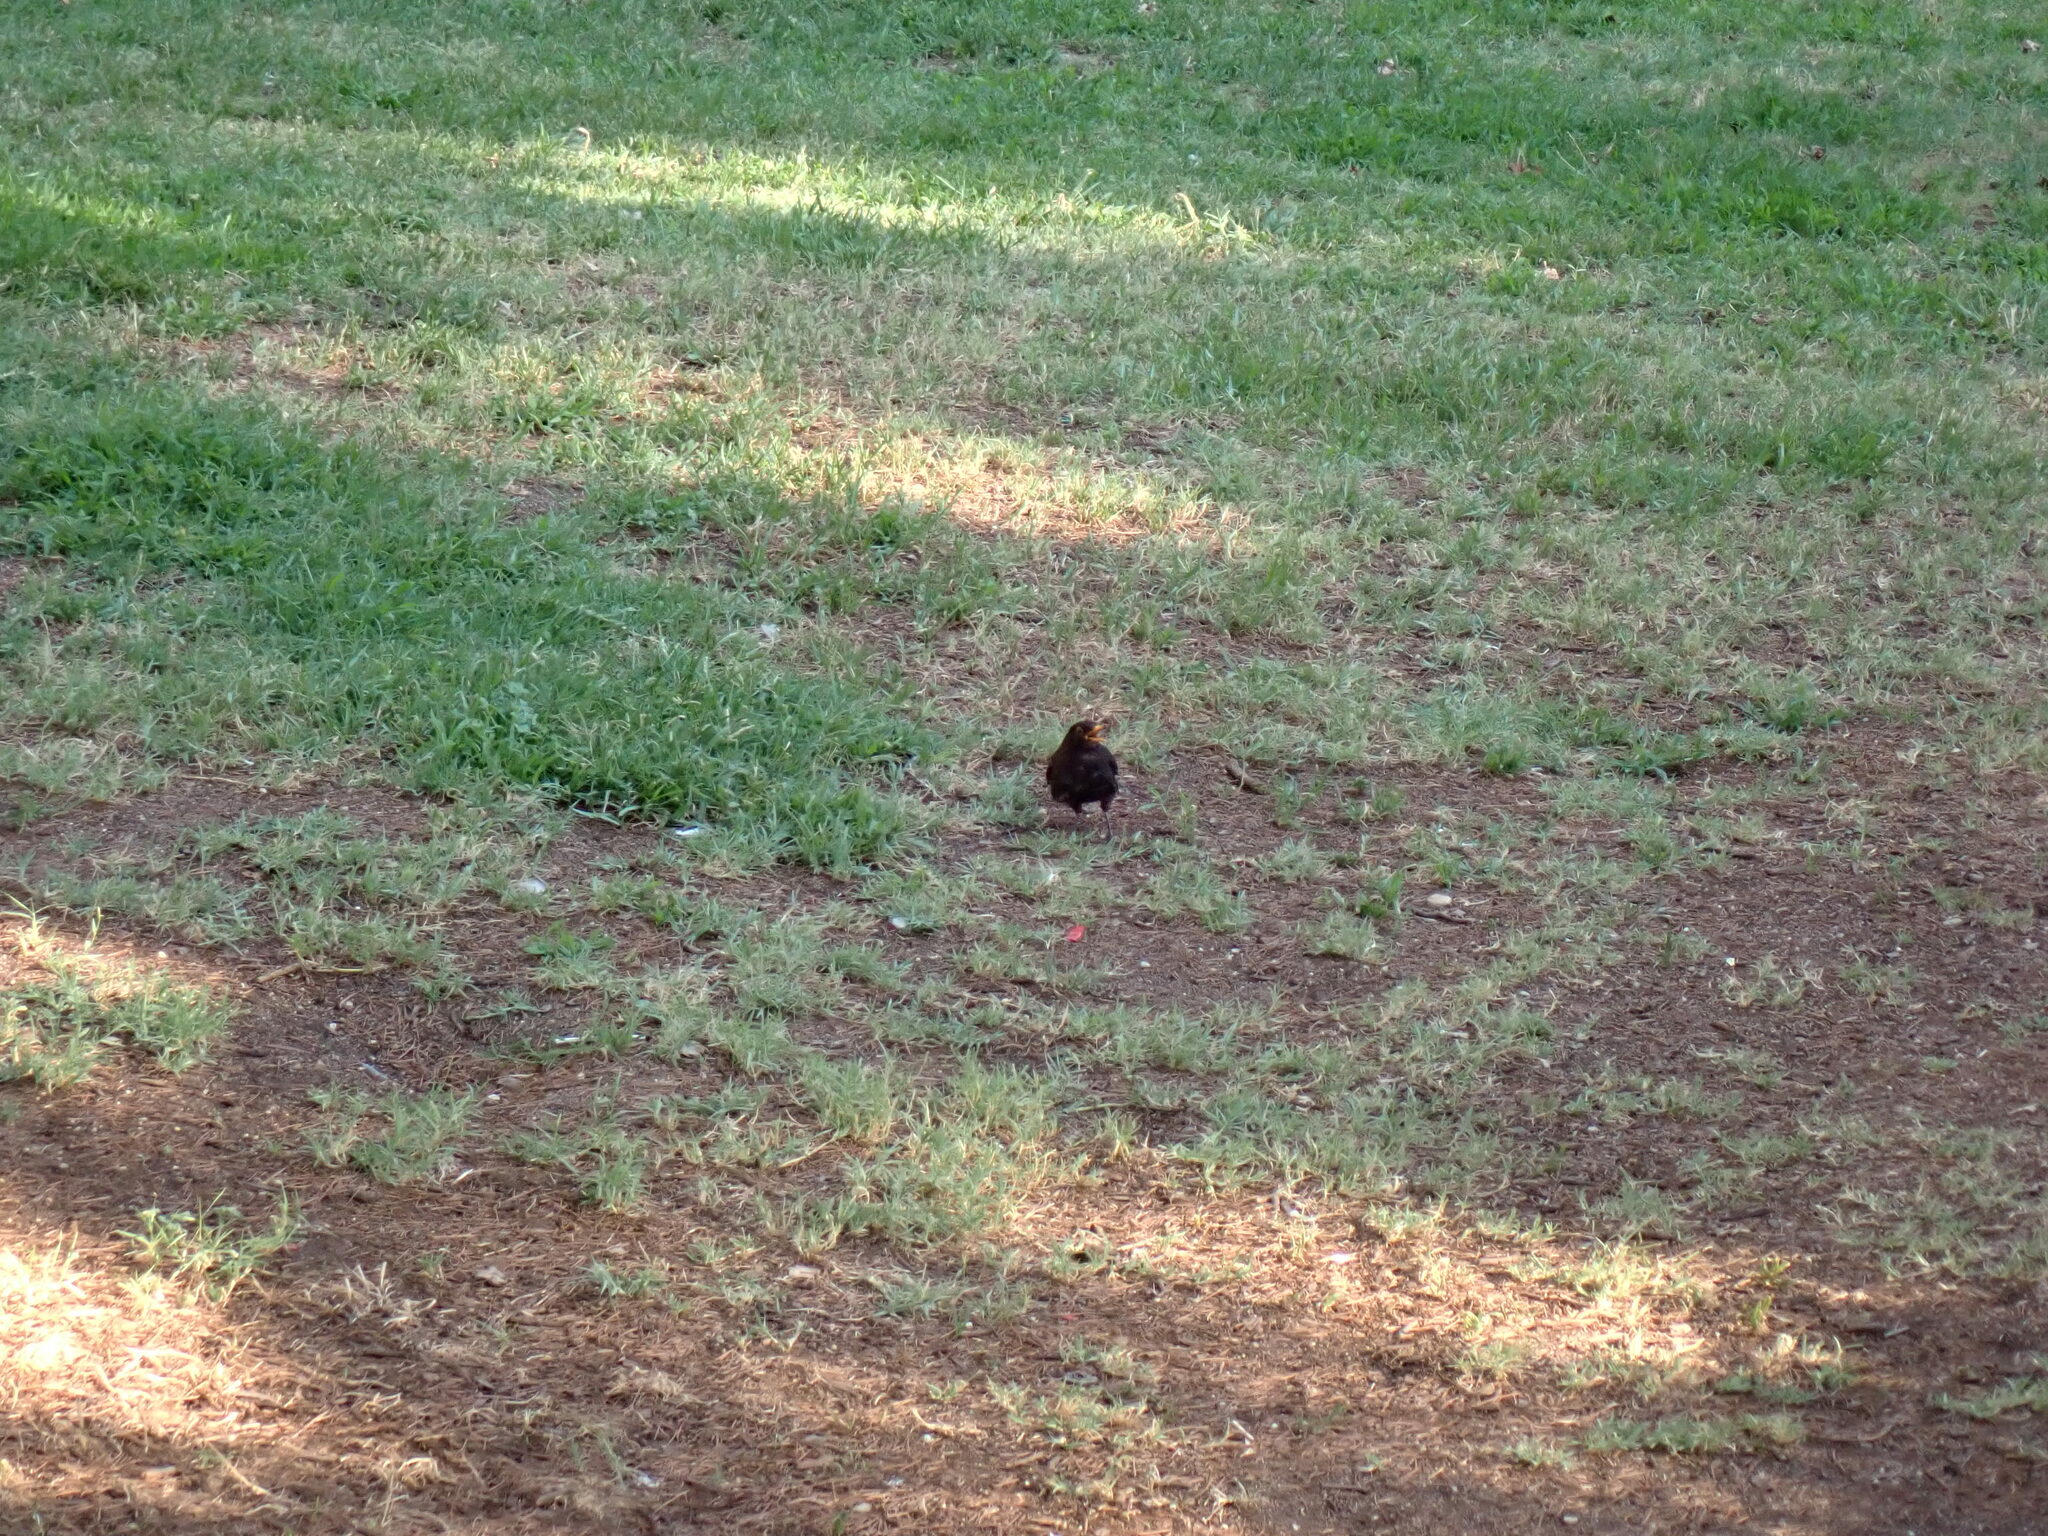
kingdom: Animalia
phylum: Chordata
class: Aves
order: Passeriformes
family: Turdidae
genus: Turdus
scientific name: Turdus merula
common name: Common blackbird
